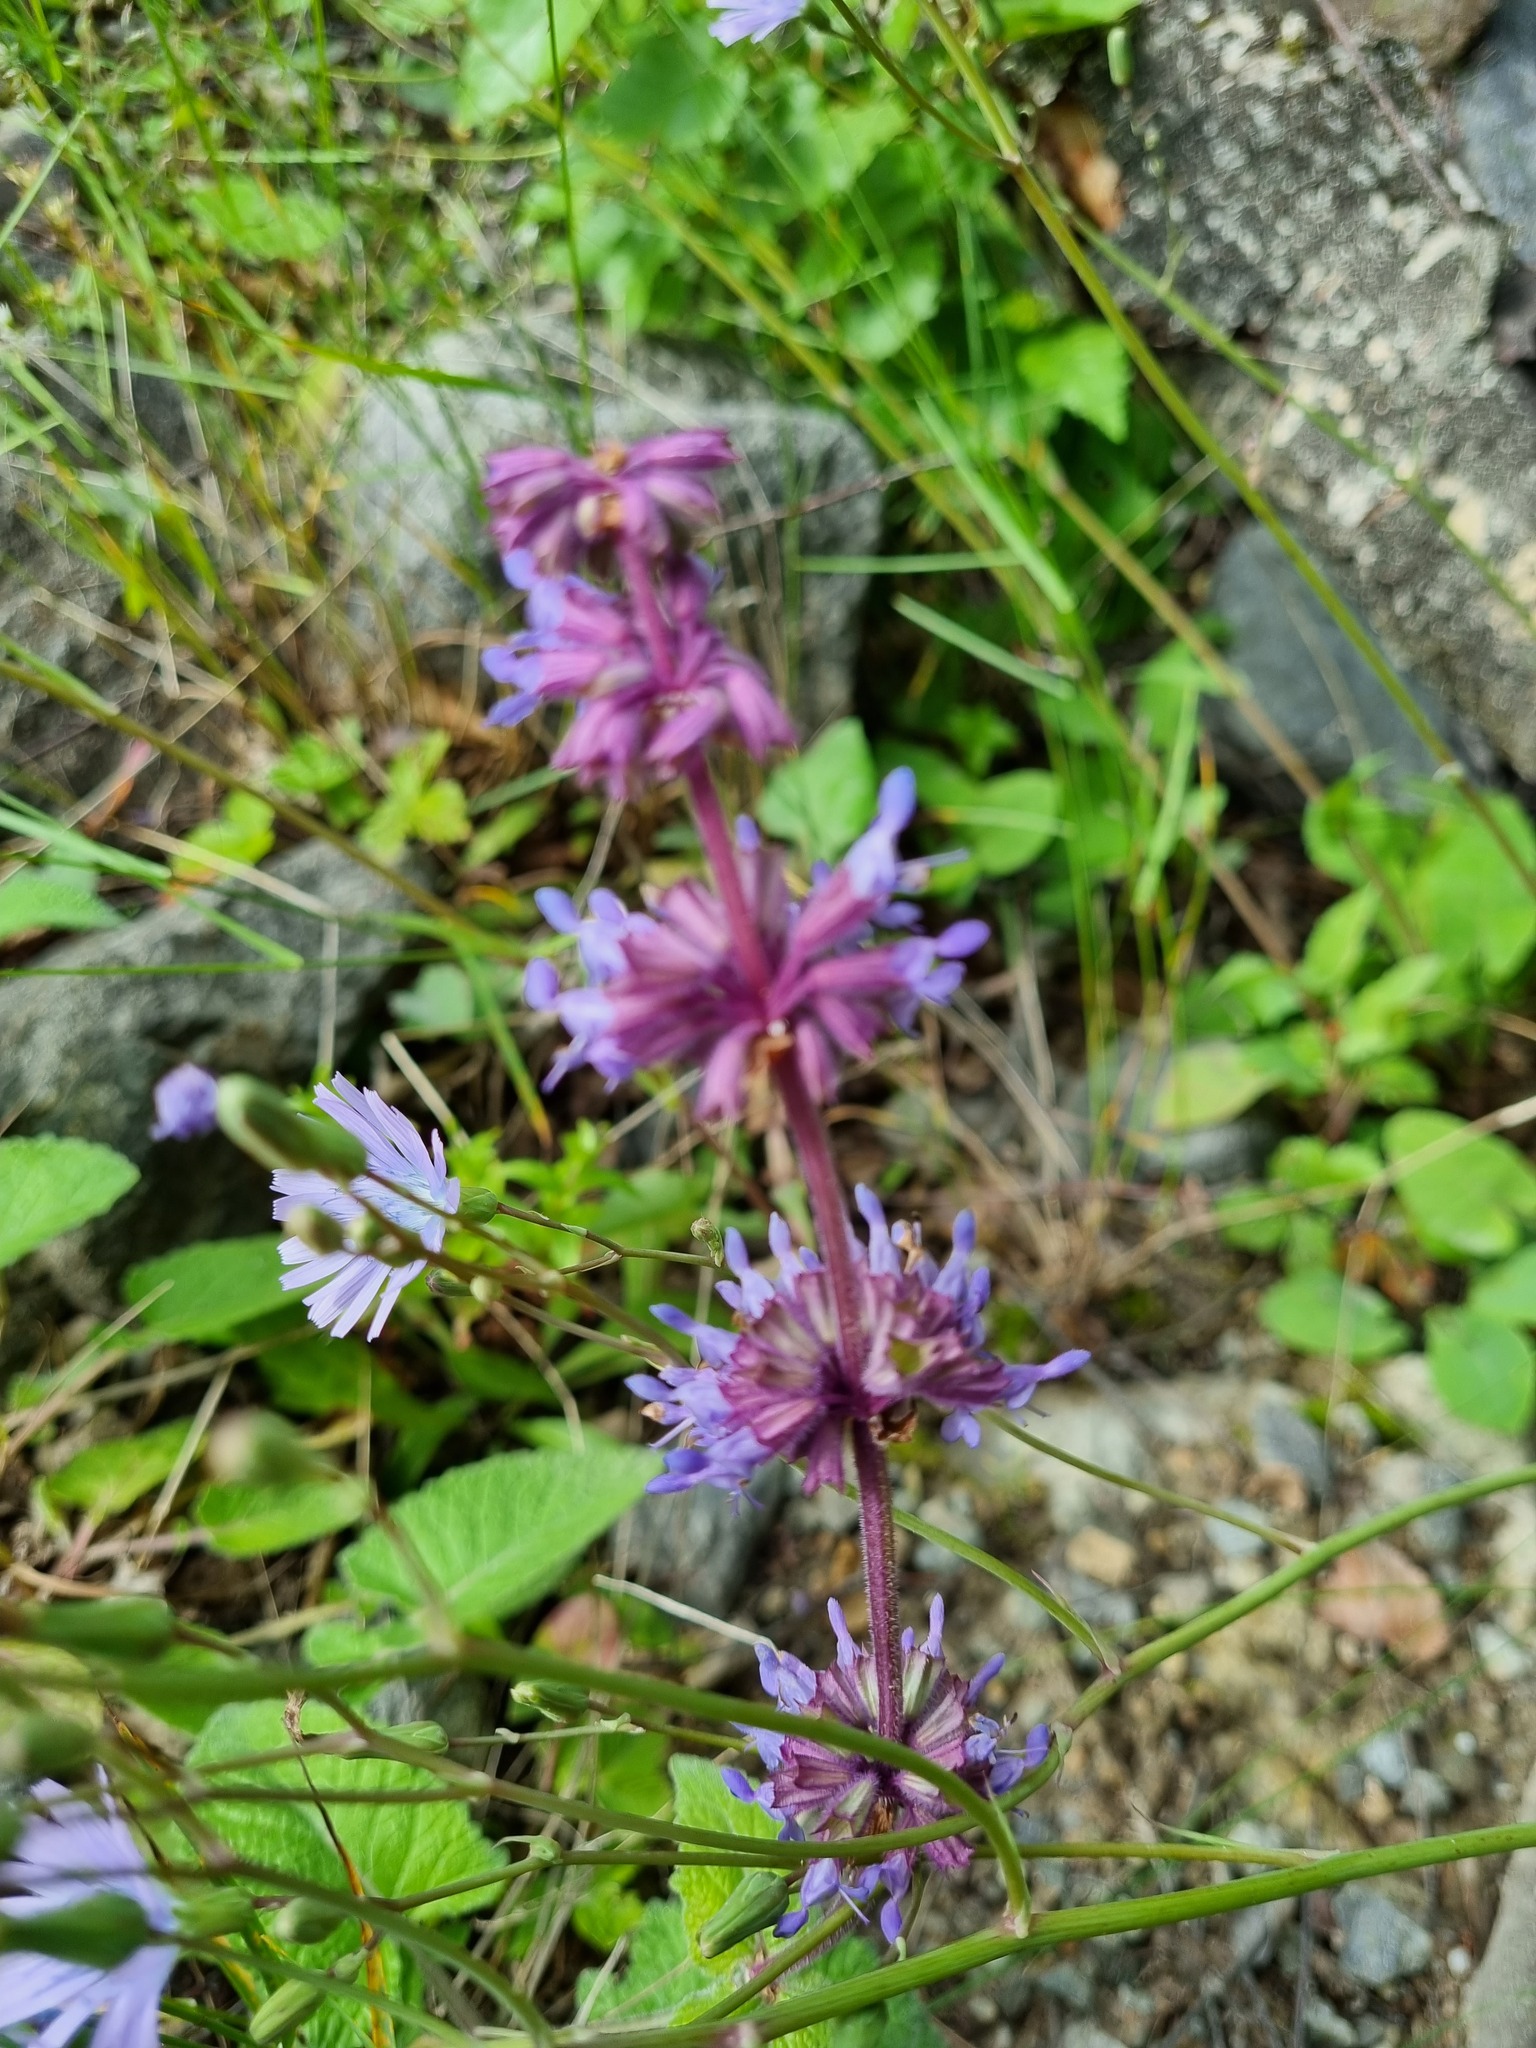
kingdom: Plantae
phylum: Tracheophyta
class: Magnoliopsida
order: Lamiales
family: Lamiaceae
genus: Salvia
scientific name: Salvia verticillata
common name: Whorled clary
